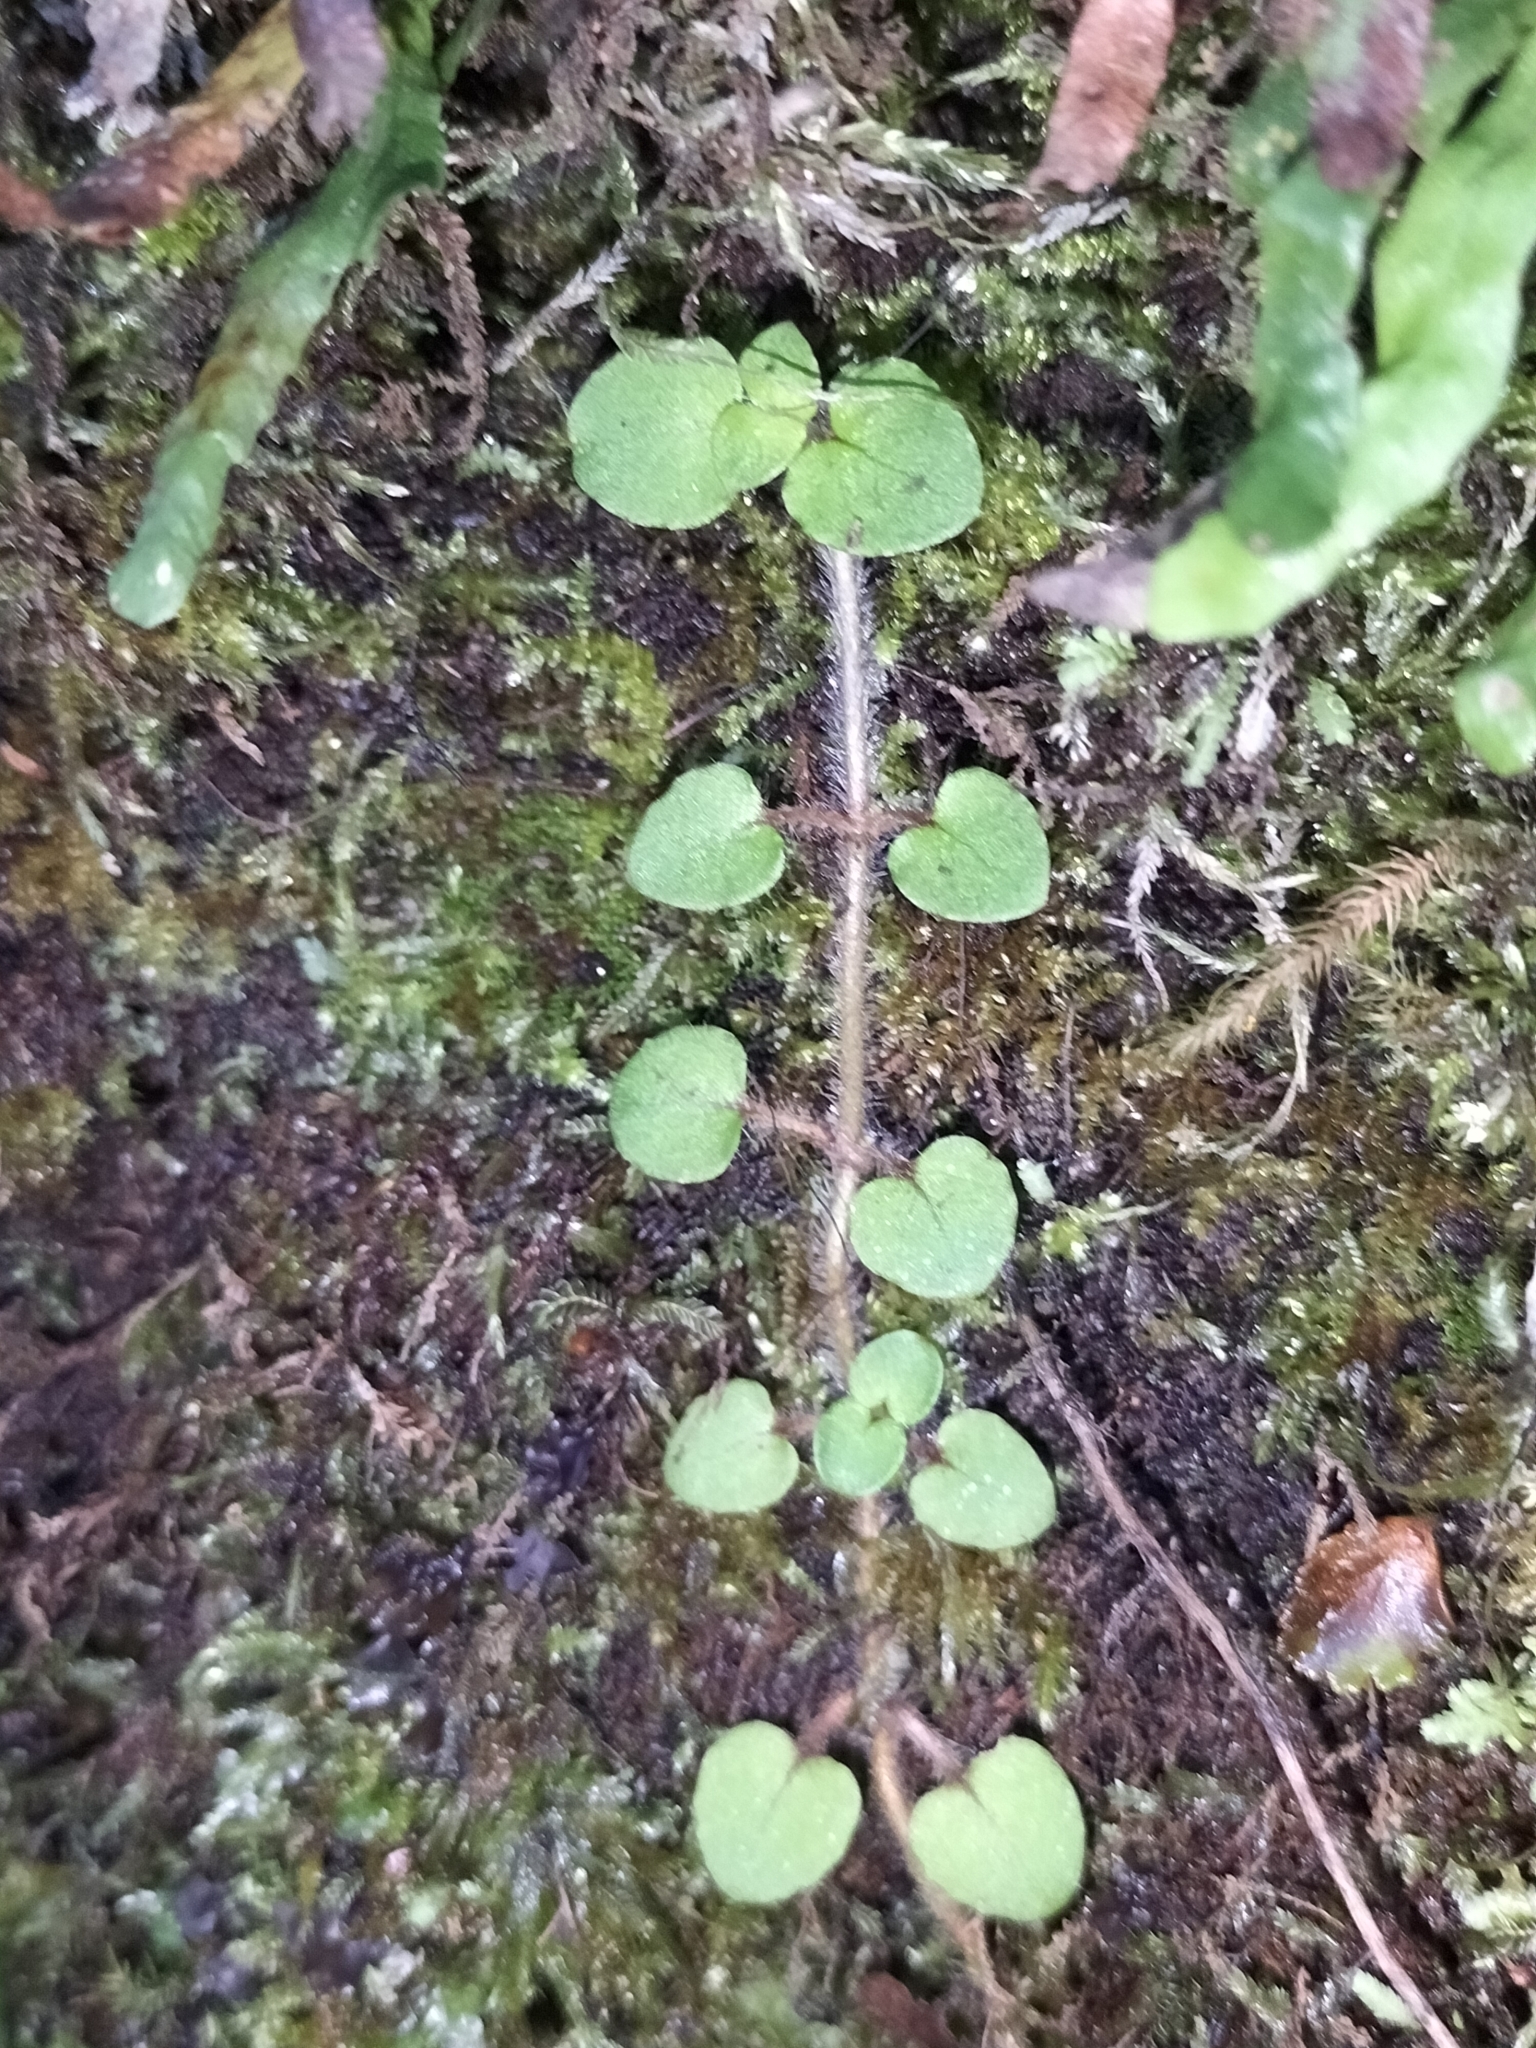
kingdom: Plantae
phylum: Tracheophyta
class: Magnoliopsida
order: Gentianales
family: Rubiaceae
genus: Nertera
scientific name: Nertera villosa
